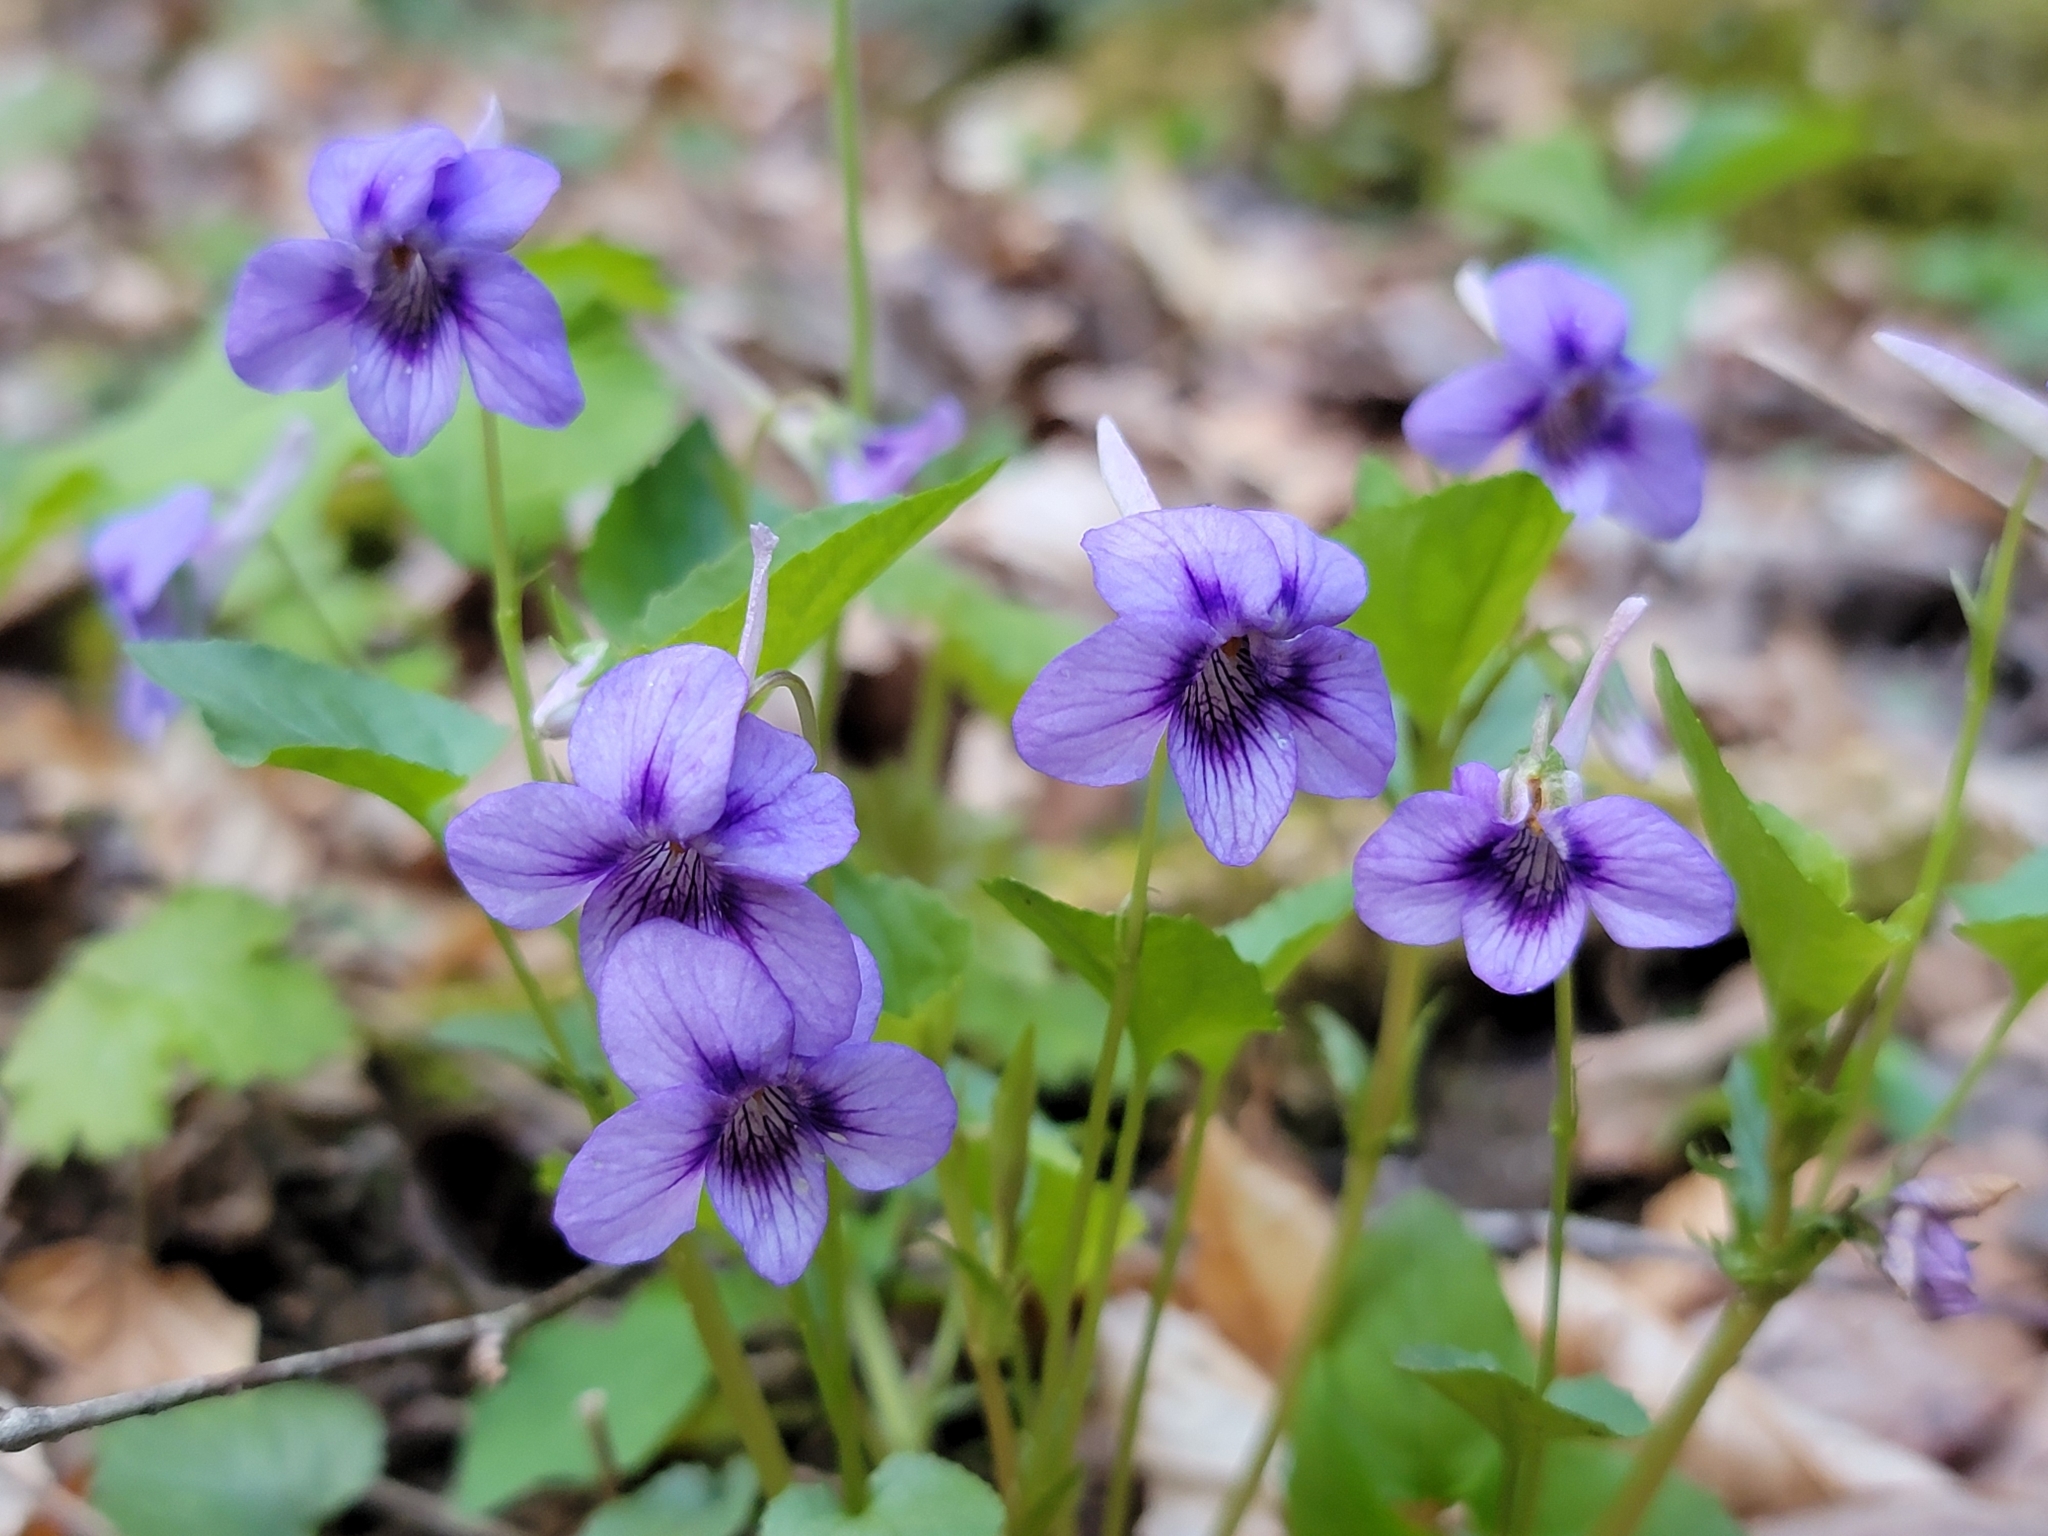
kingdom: Plantae
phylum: Tracheophyta
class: Magnoliopsida
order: Malpighiales
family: Violaceae
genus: Viola
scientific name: Viola rostrata
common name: Long-spur violet
